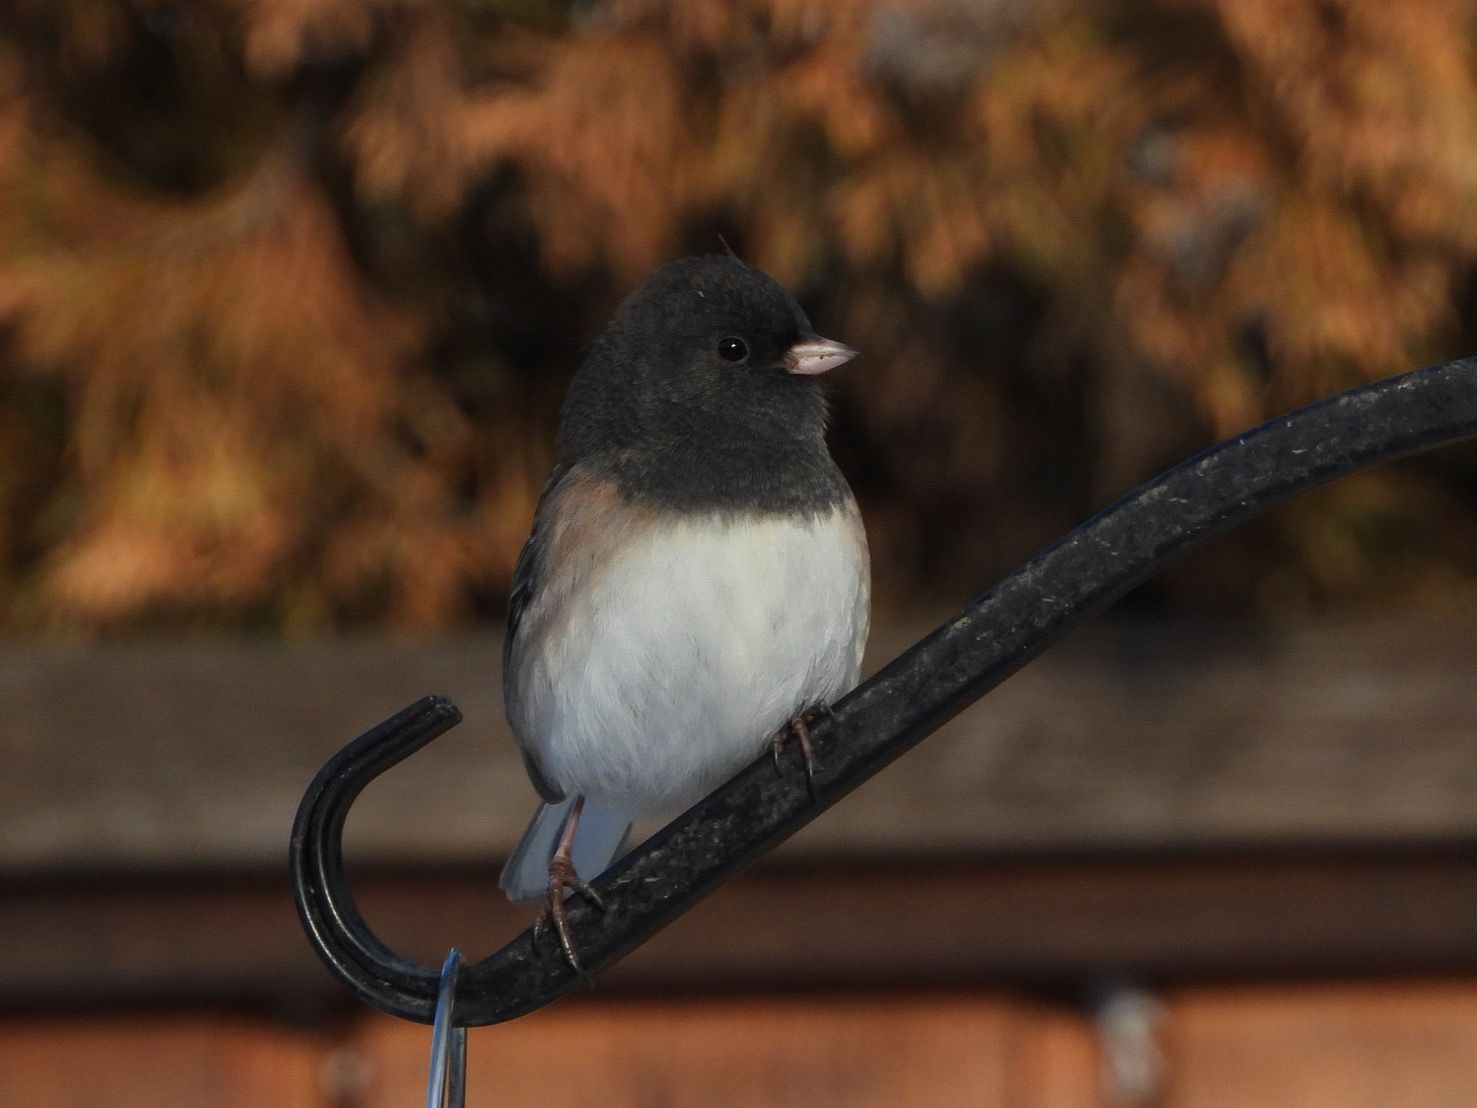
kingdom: Animalia
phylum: Chordata
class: Aves
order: Passeriformes
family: Passerellidae
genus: Junco
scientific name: Junco hyemalis
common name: Dark-eyed junco
